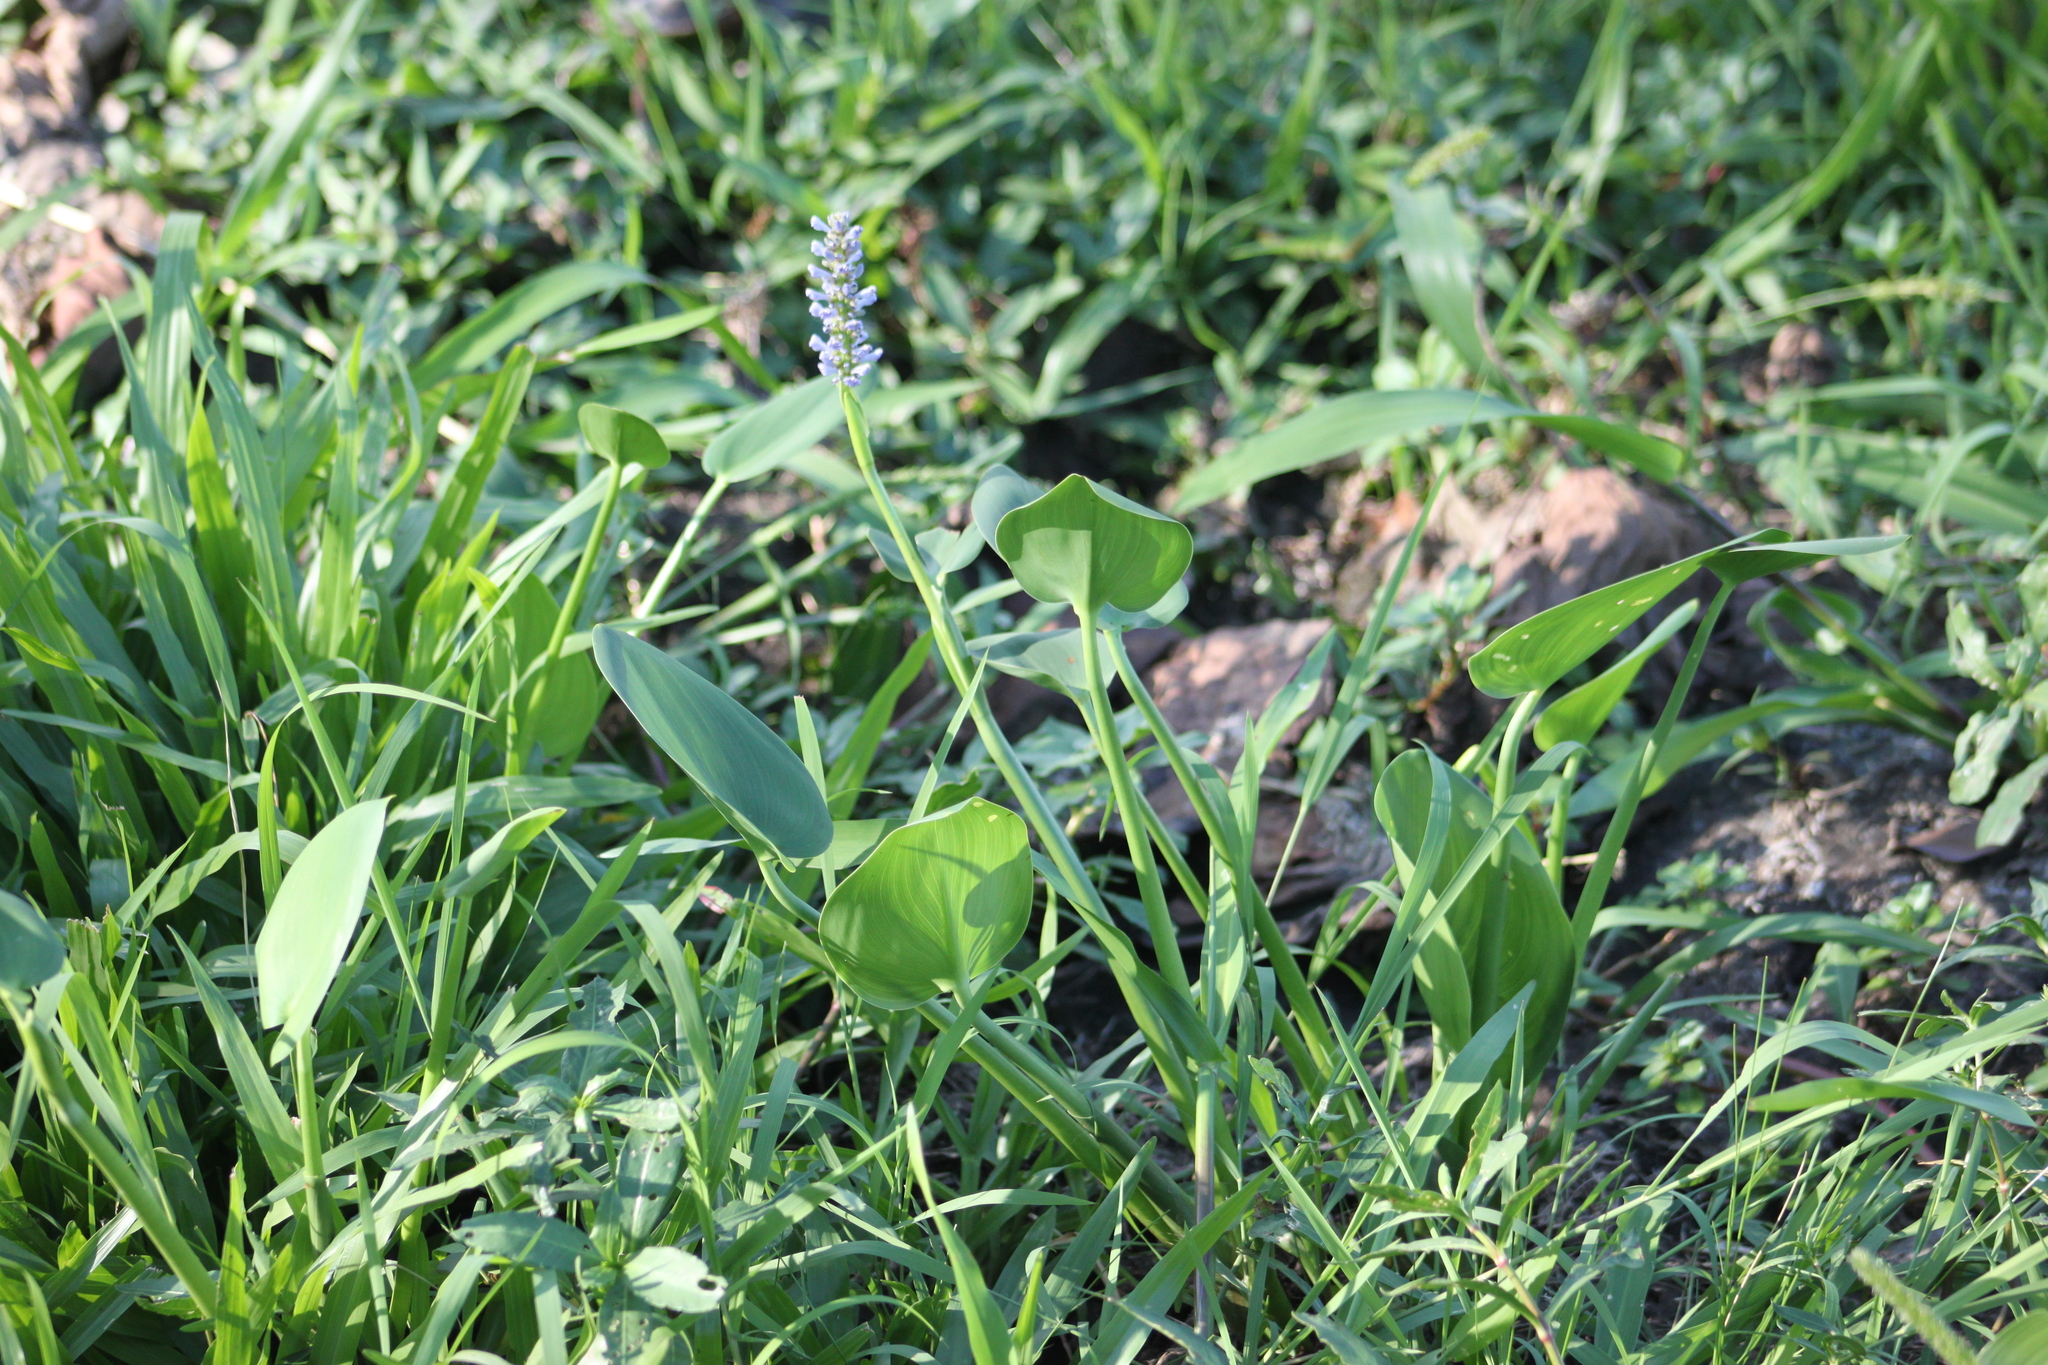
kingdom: Plantae
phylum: Tracheophyta
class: Liliopsida
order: Commelinales
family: Pontederiaceae
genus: Pontederia
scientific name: Pontederia cordata
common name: Pickerelweed
